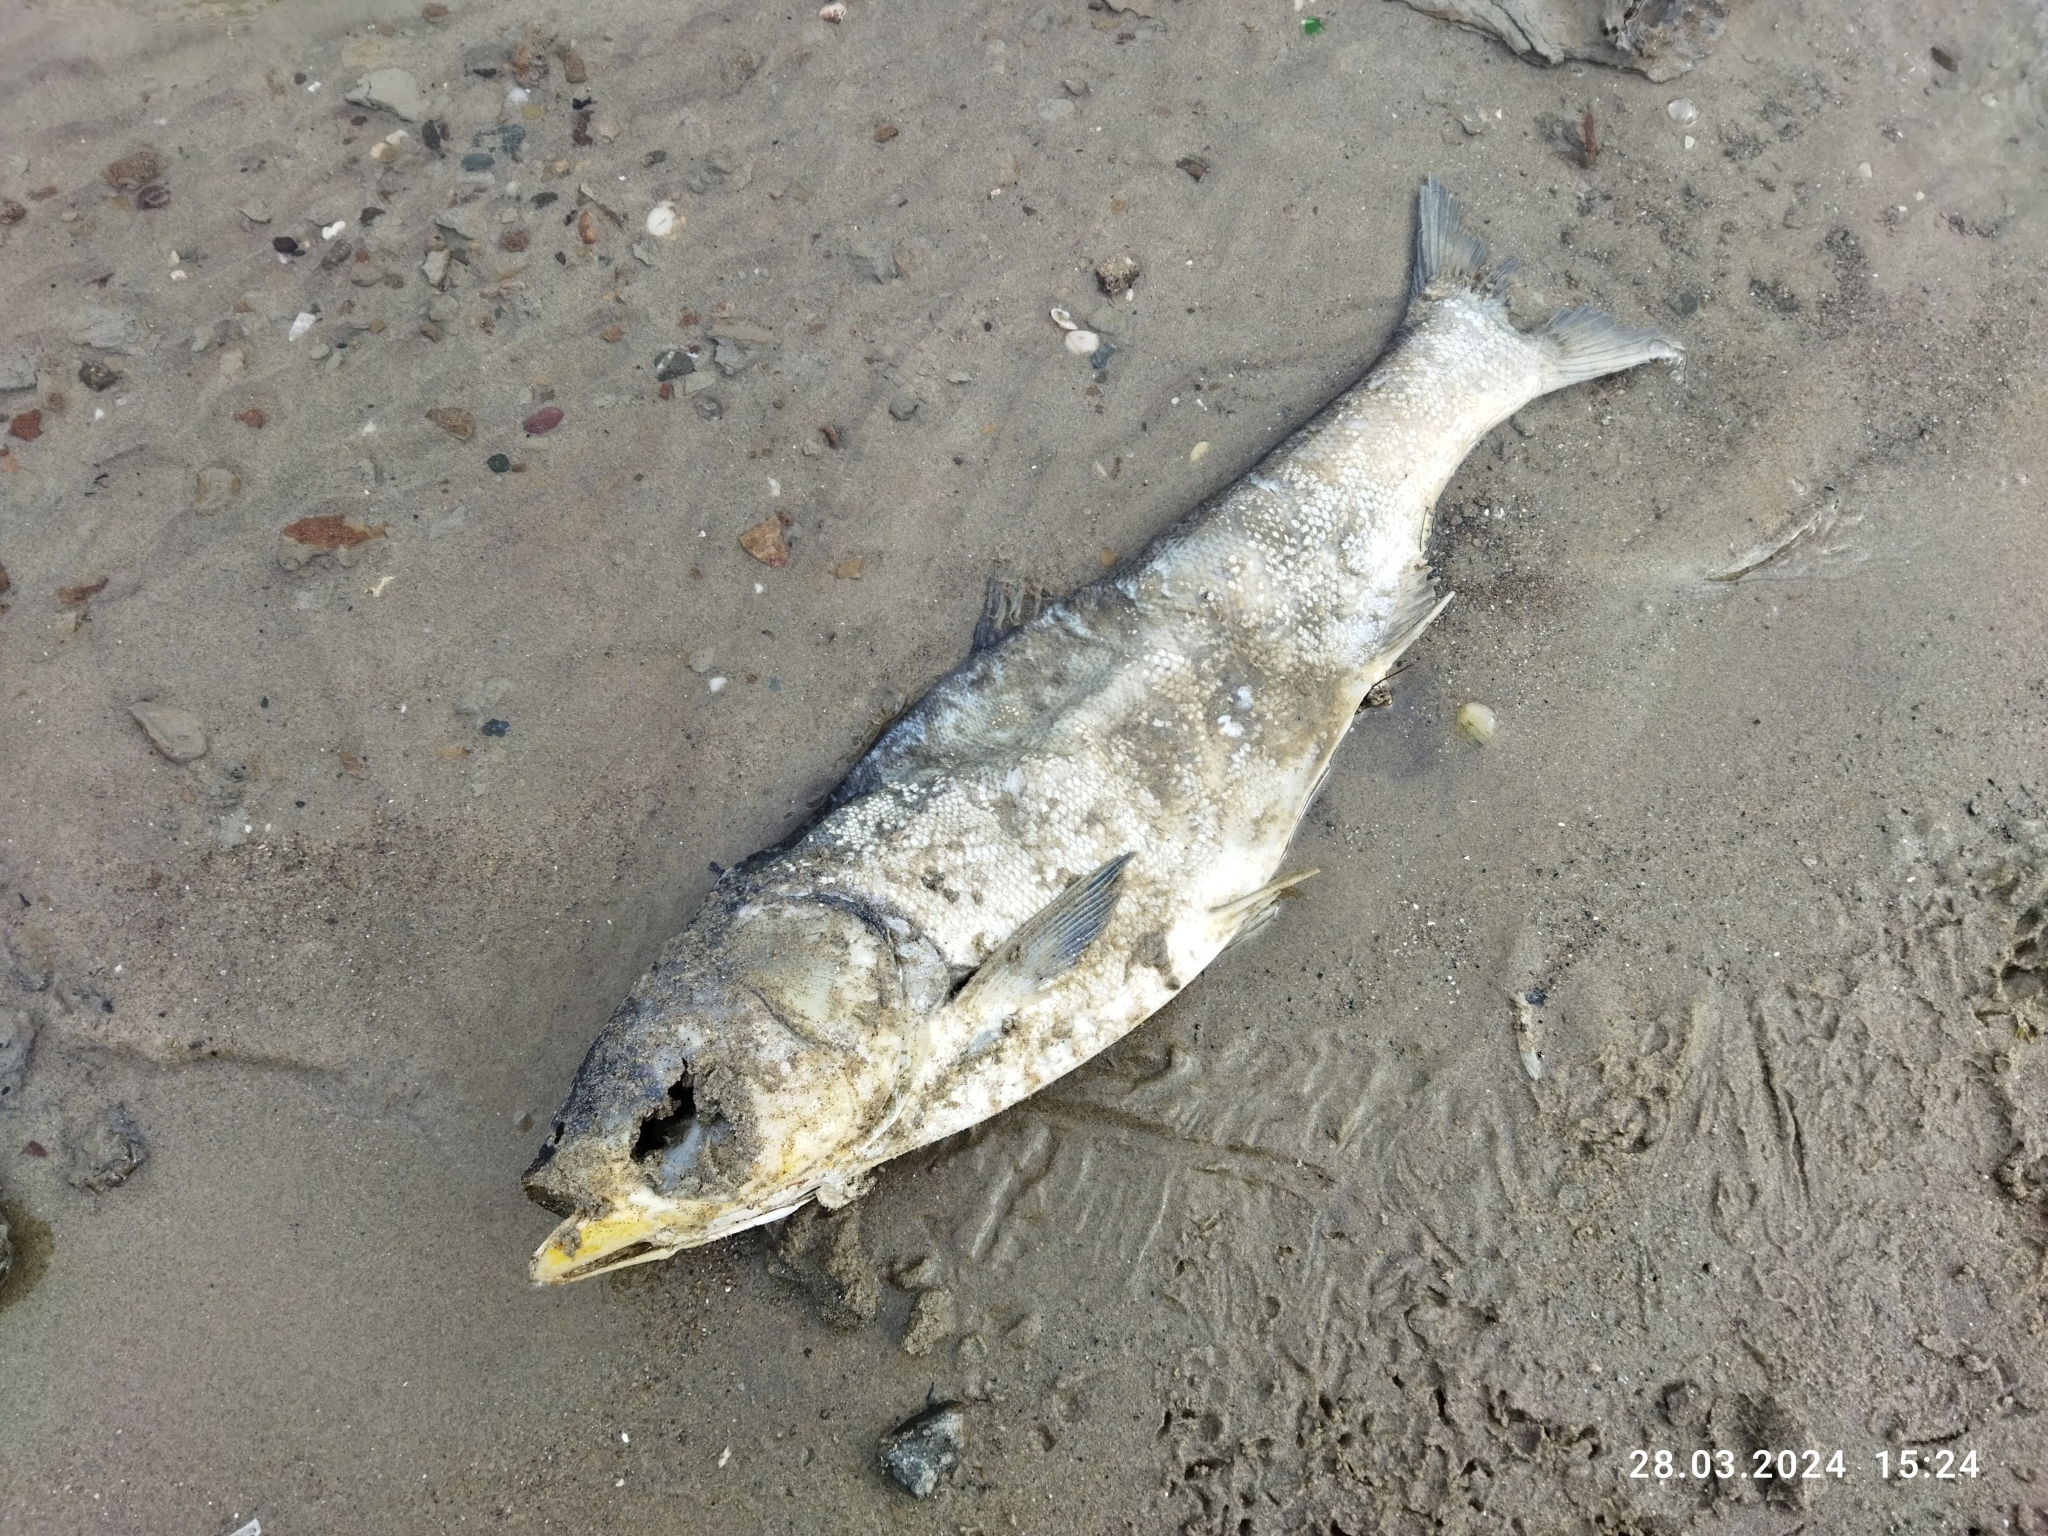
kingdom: Animalia
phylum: Chordata
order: Cypriniformes
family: Cyprinidae
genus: Hypophthalmichthys
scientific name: Hypophthalmichthys molitrix
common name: Silver carp
